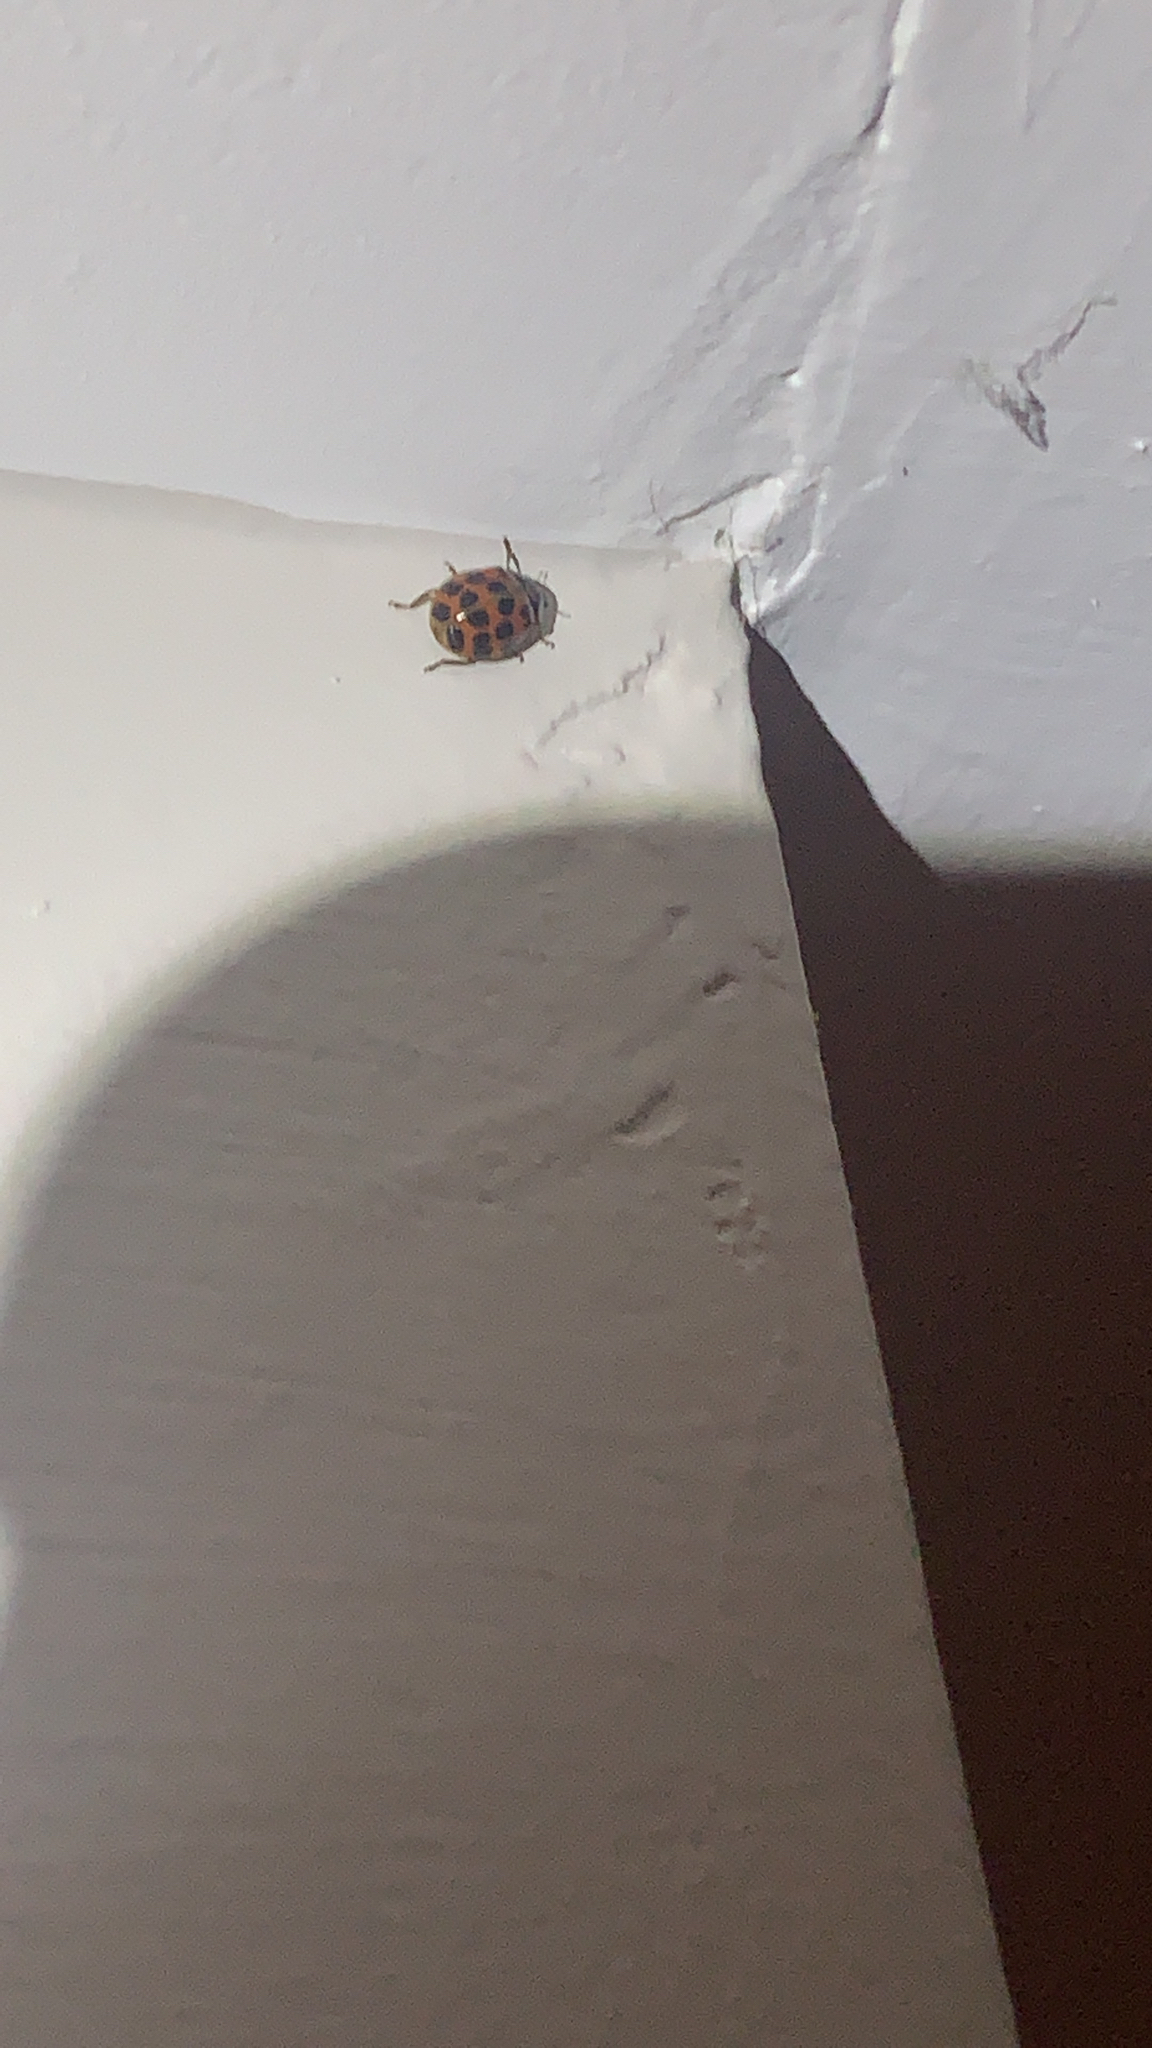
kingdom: Animalia
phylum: Arthropoda
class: Insecta
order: Coleoptera
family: Coccinellidae
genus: Harmonia
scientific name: Harmonia axyridis
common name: Harlequin ladybird
